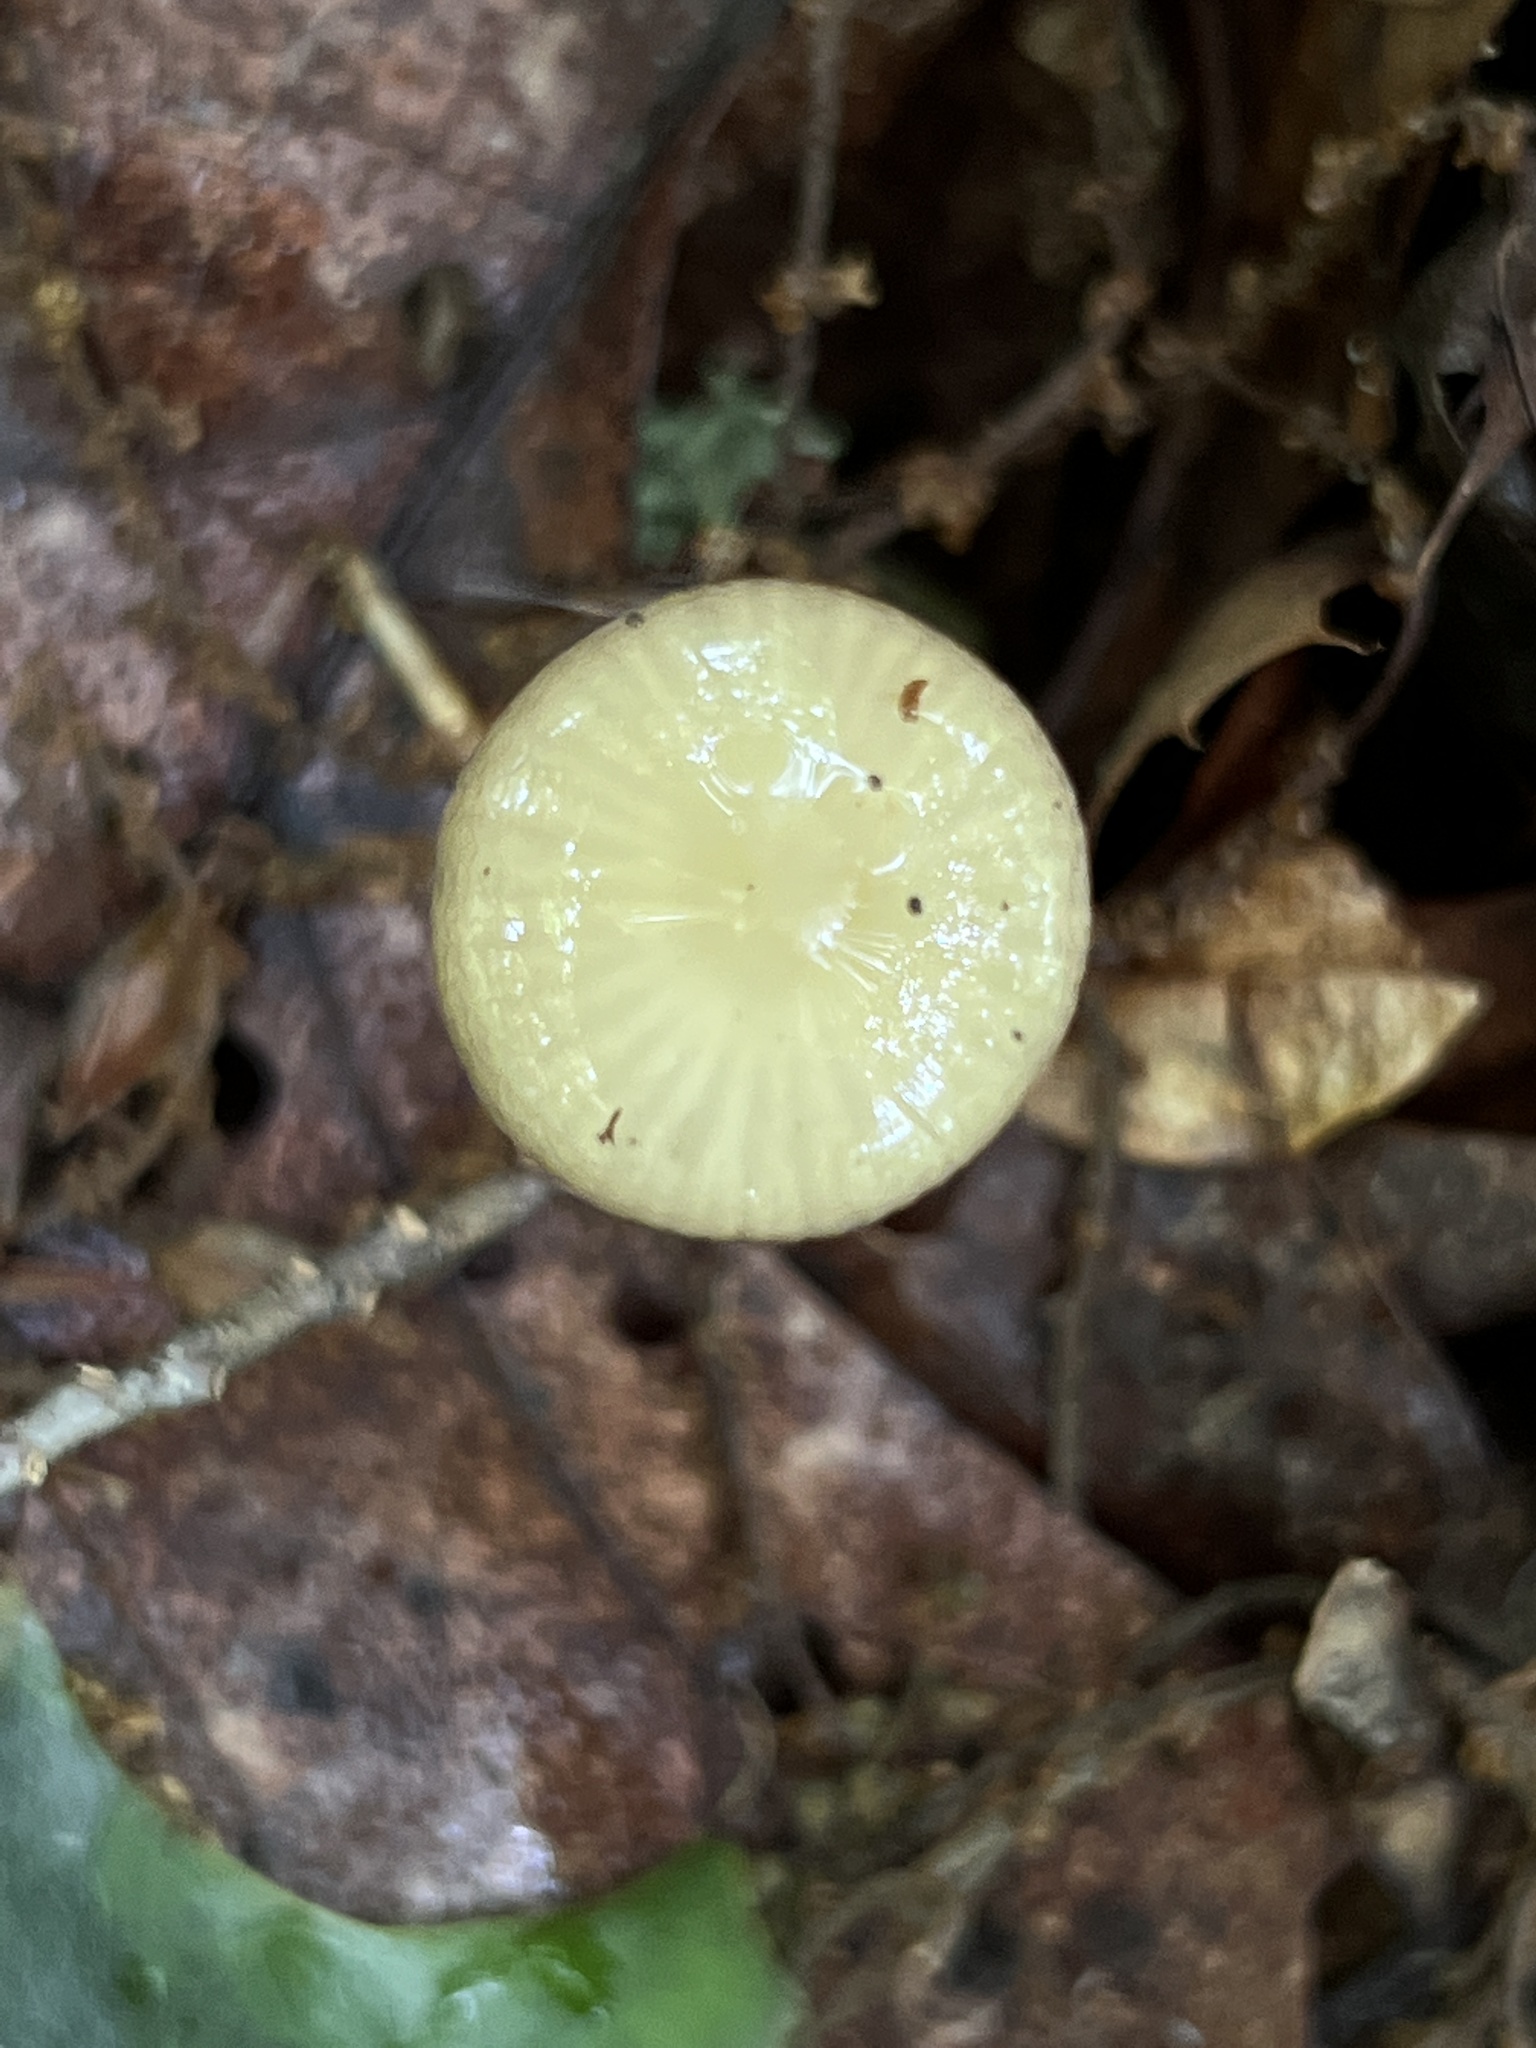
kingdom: Fungi
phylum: Basidiomycota
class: Agaricomycetes
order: Agaricales
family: Physalacriaceae
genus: Hymenopellis
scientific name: Hymenopellis radicata
